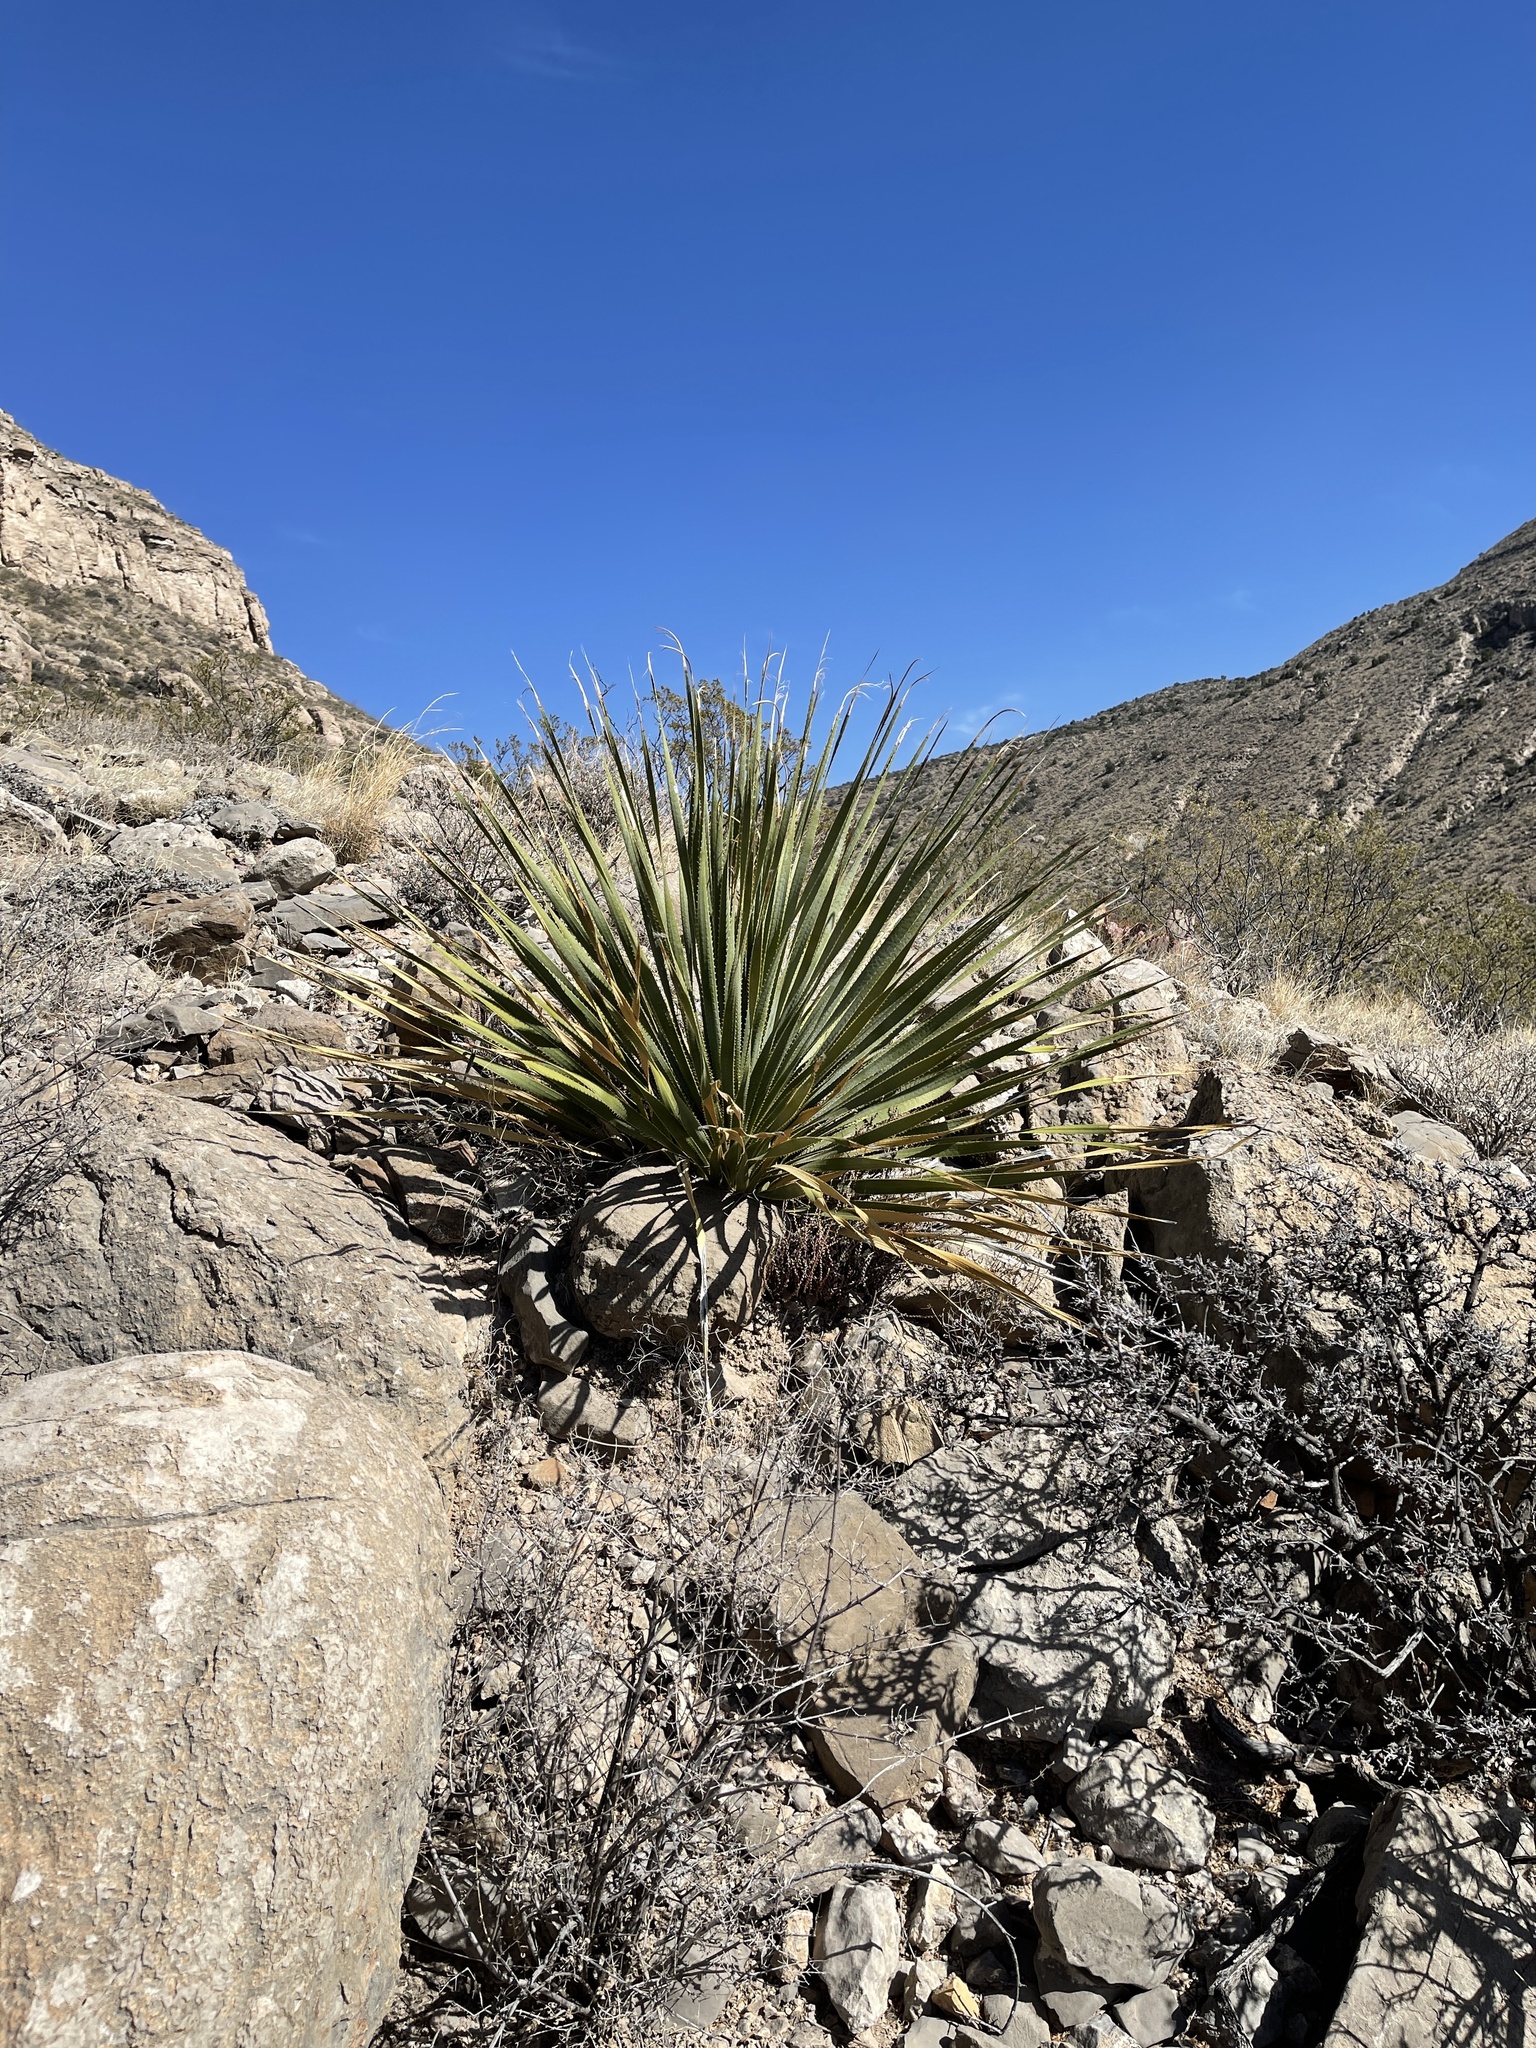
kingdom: Plantae
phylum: Tracheophyta
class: Liliopsida
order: Asparagales
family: Asparagaceae
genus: Dasylirion
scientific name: Dasylirion wheeleri
